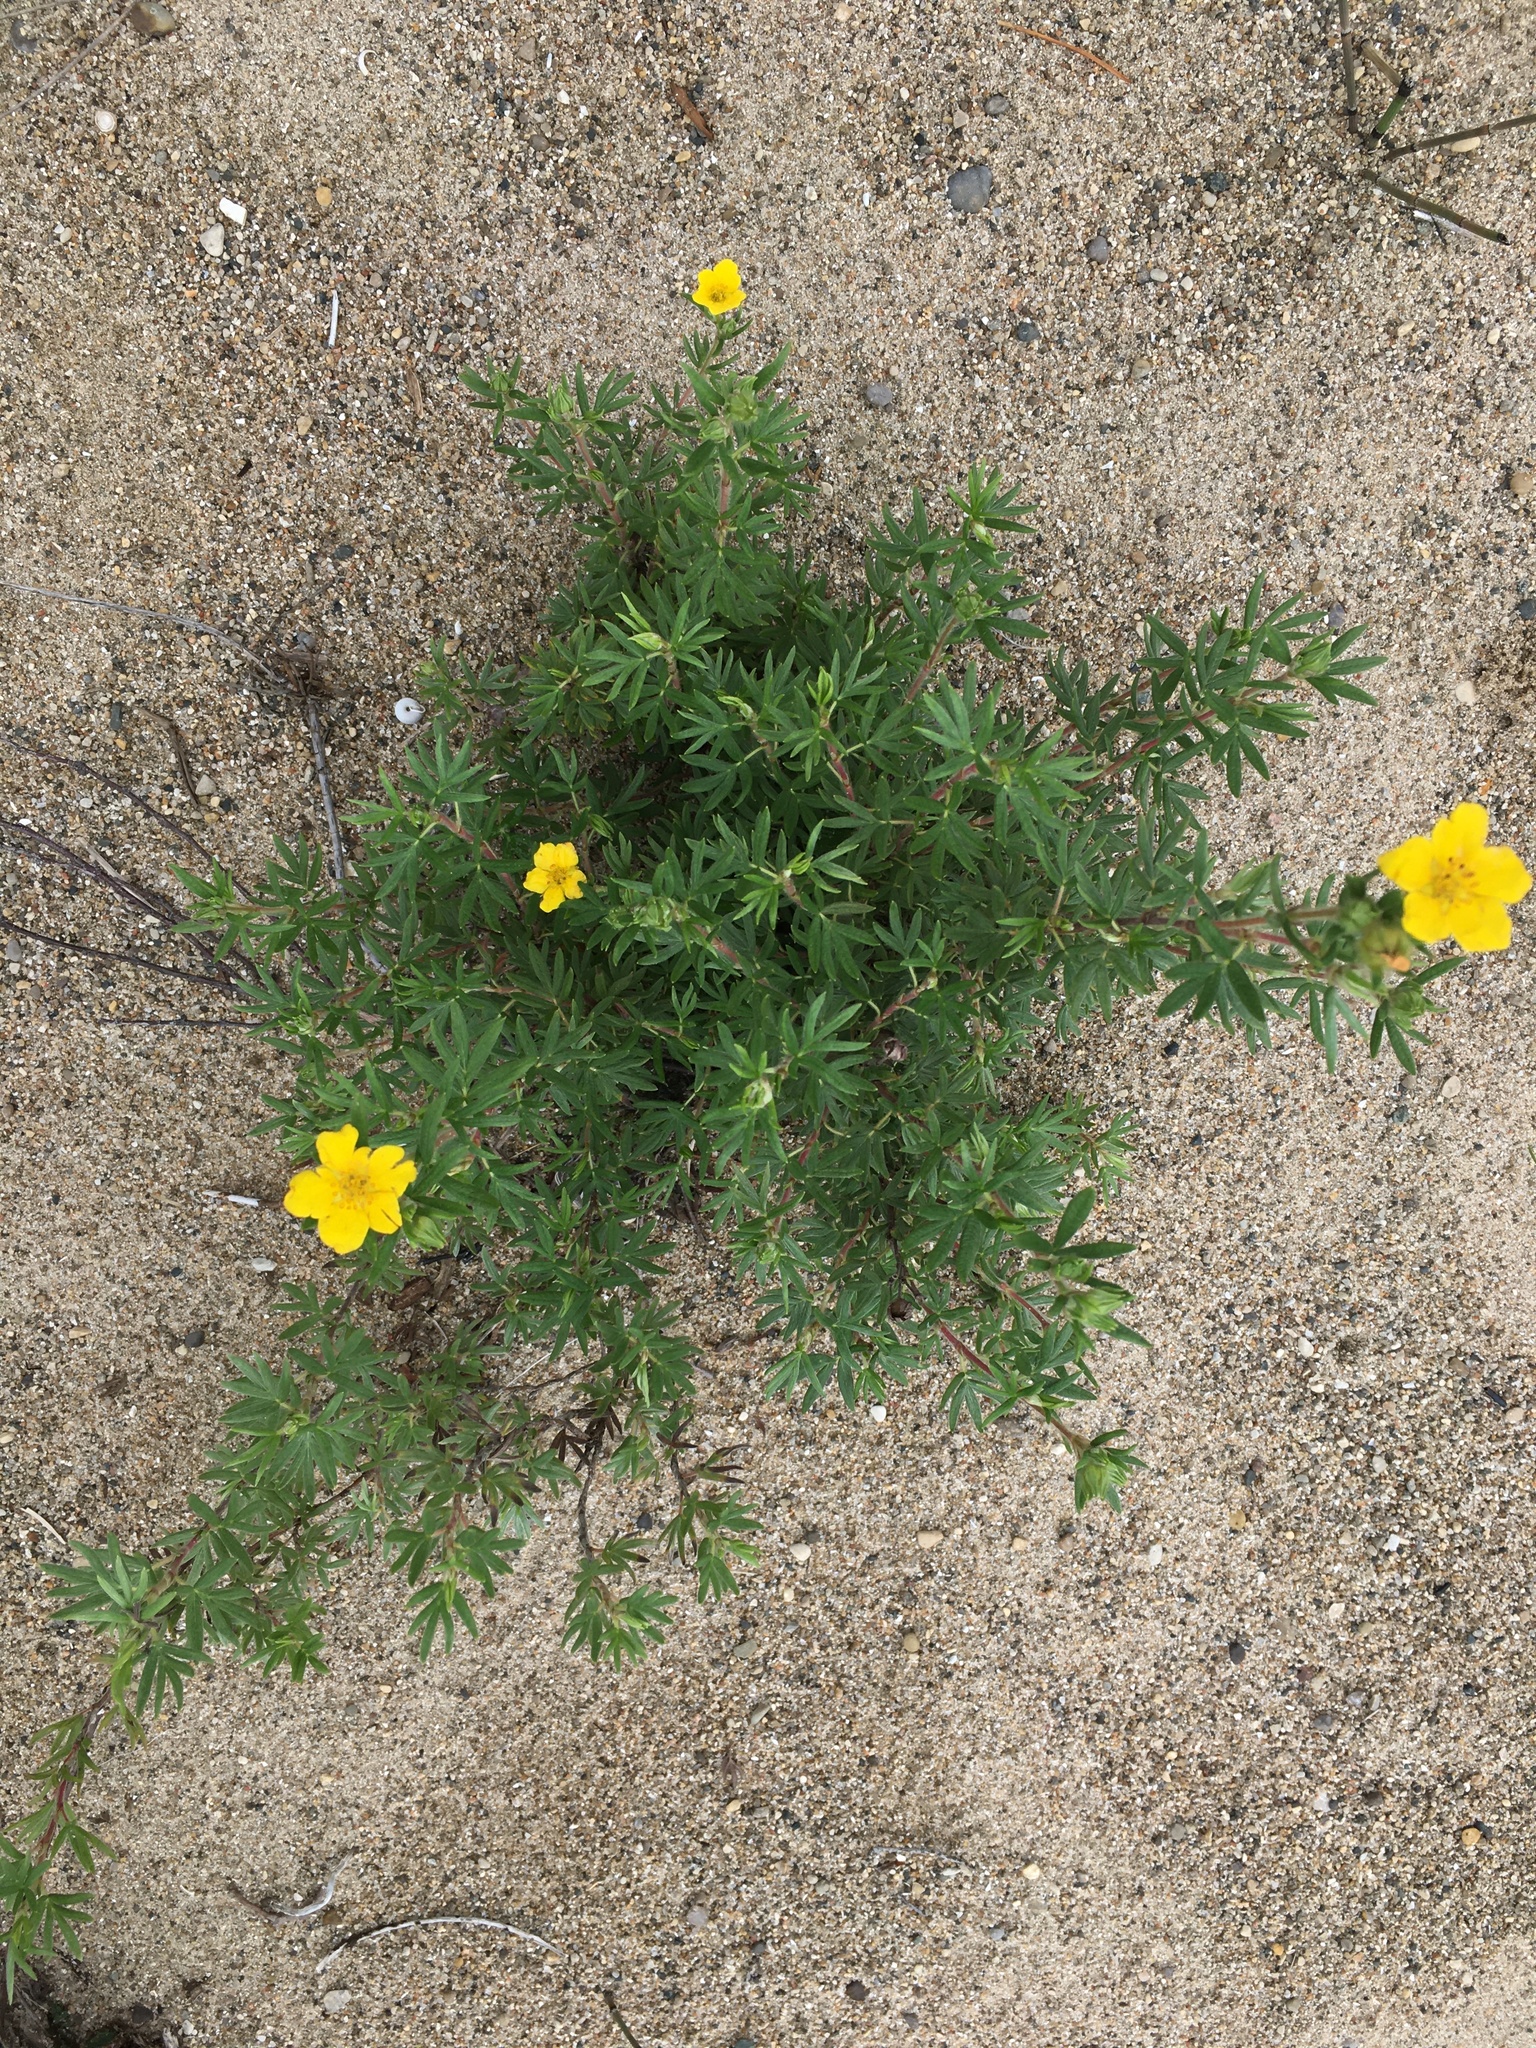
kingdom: Plantae
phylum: Tracheophyta
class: Magnoliopsida
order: Rosales
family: Rosaceae
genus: Dasiphora
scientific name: Dasiphora fruticosa
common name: Shrubby cinquefoil
